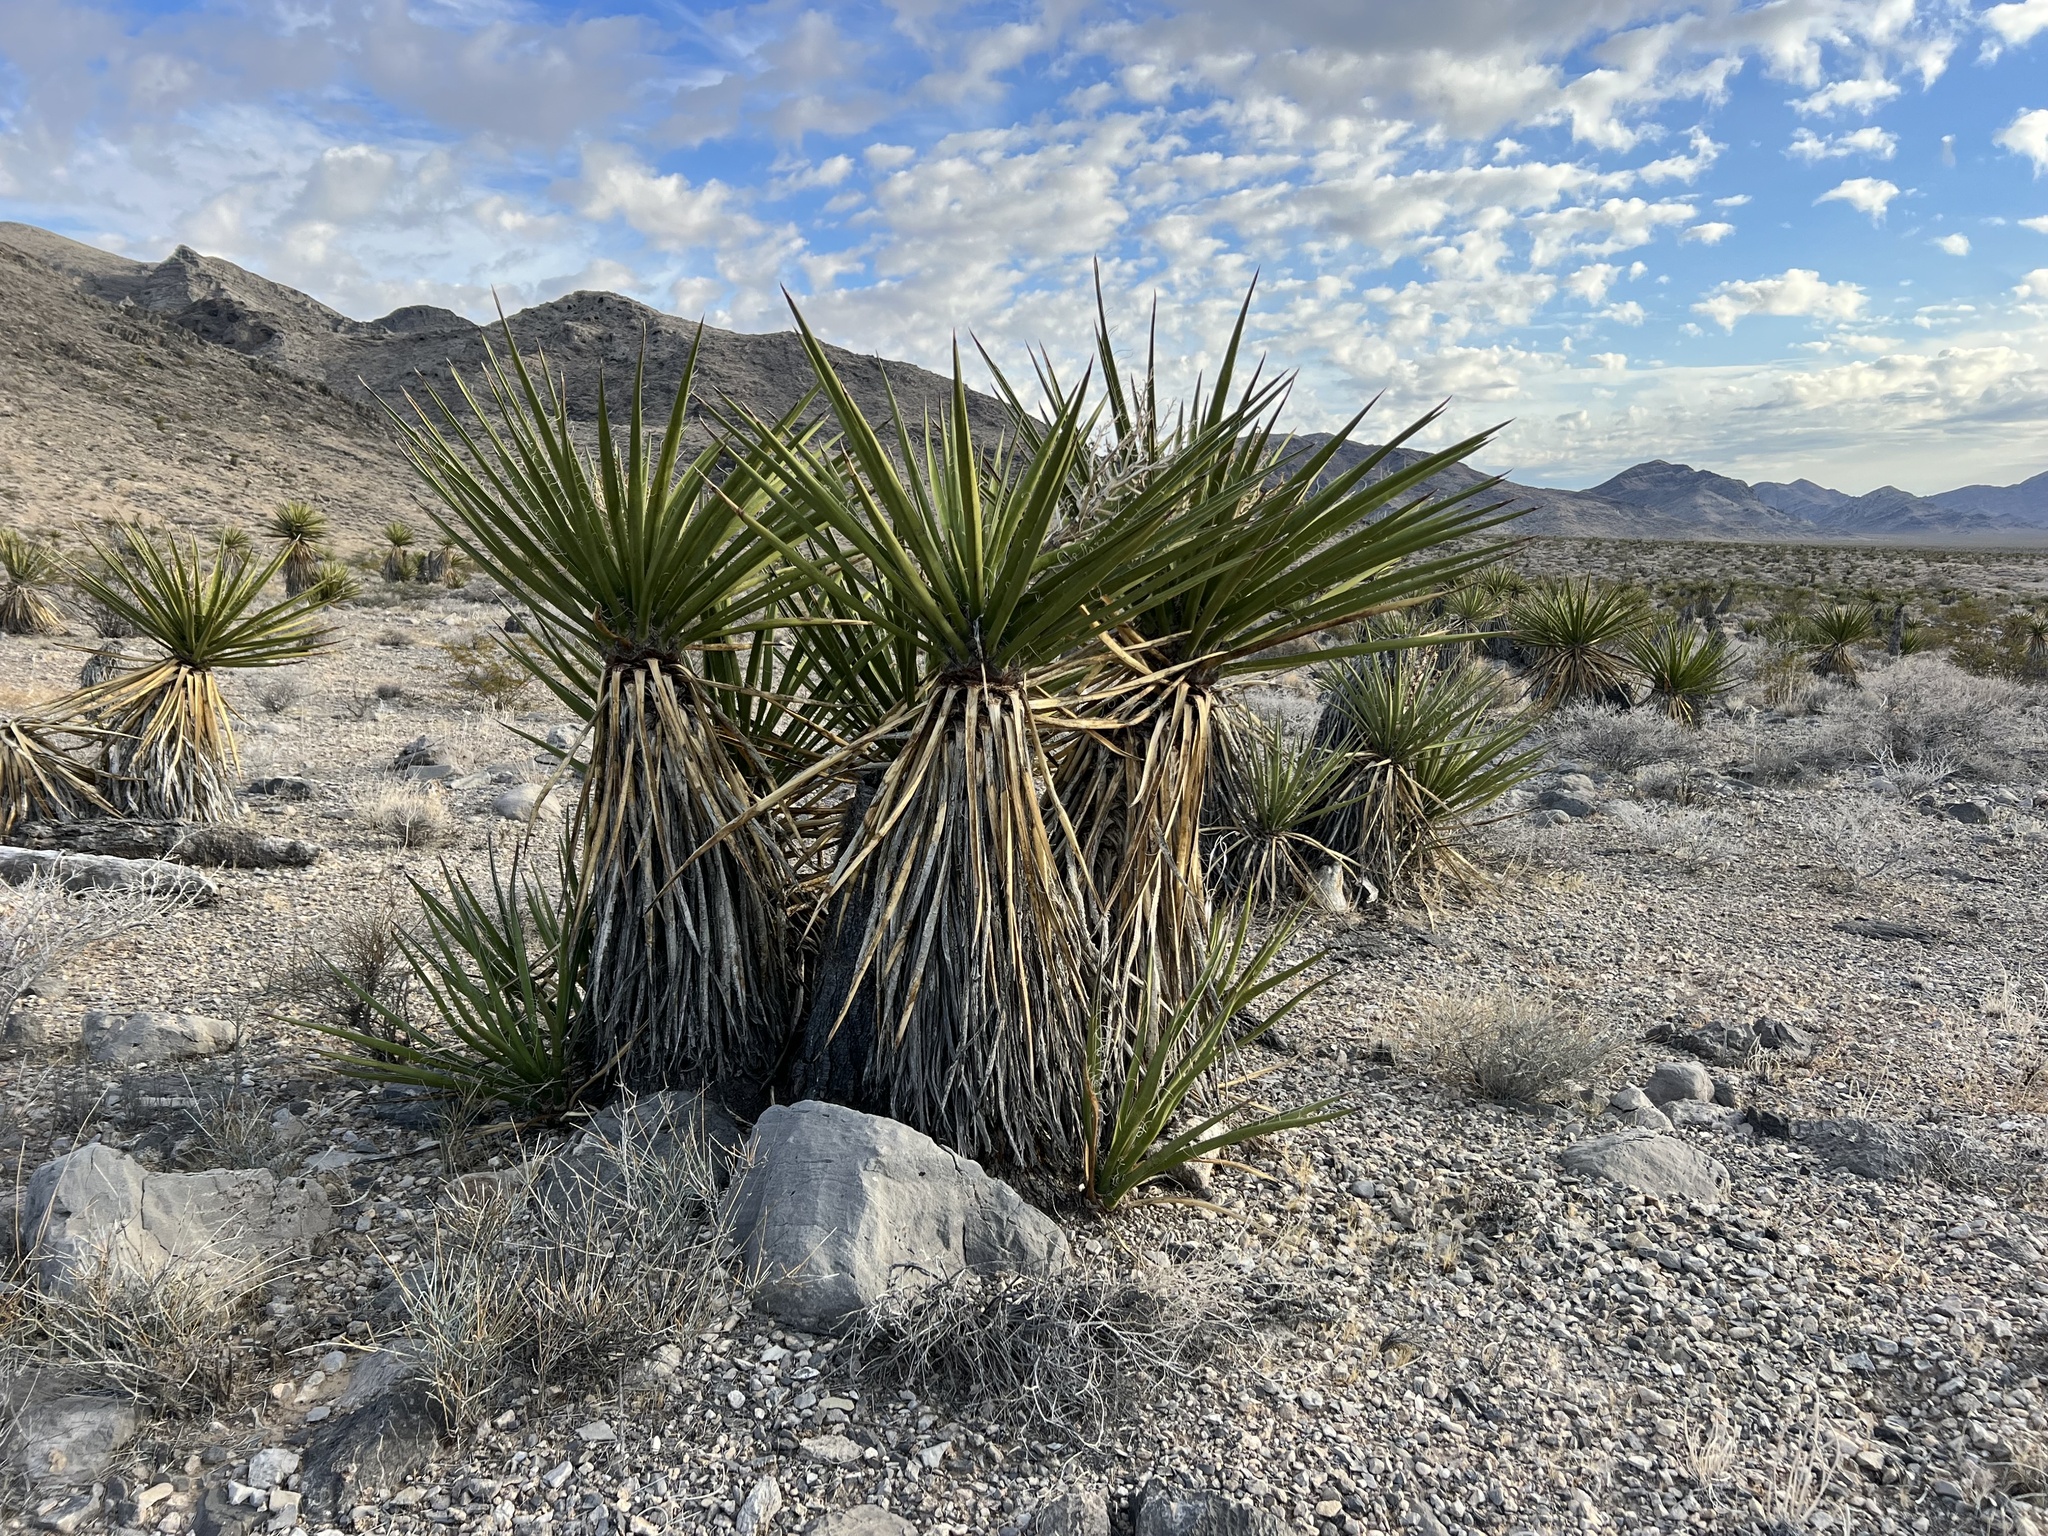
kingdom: Plantae
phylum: Tracheophyta
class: Liliopsida
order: Asparagales
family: Asparagaceae
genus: Yucca
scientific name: Yucca schidigera
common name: Mojave yucca
